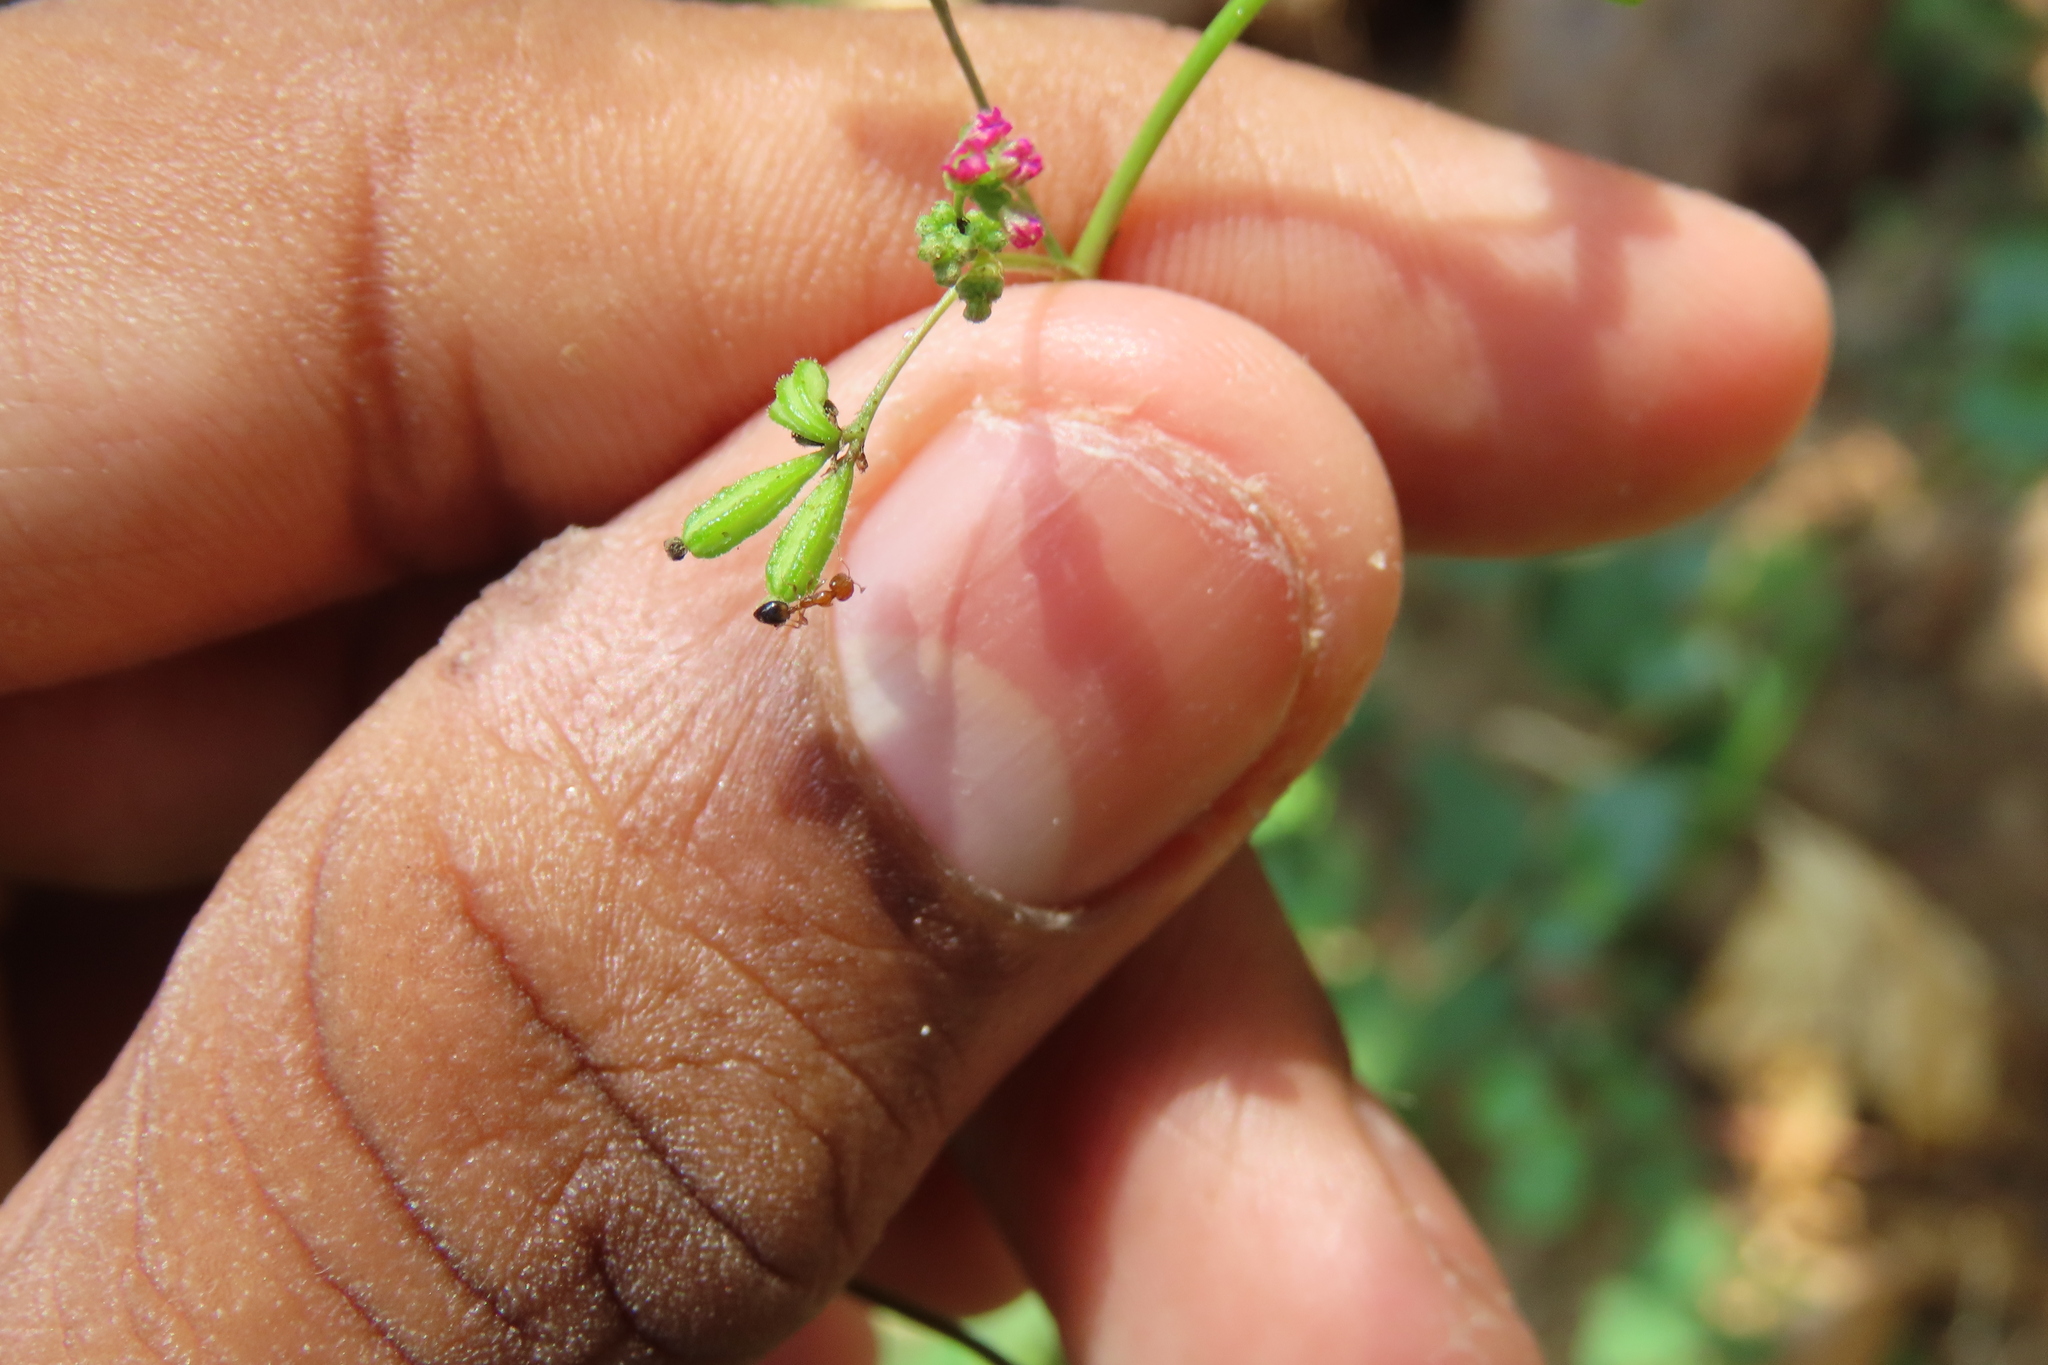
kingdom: Animalia
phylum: Arthropoda
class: Insecta
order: Hymenoptera
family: Formicidae
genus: Monomorium
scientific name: Monomorium destructor
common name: Destructive trailing ant
